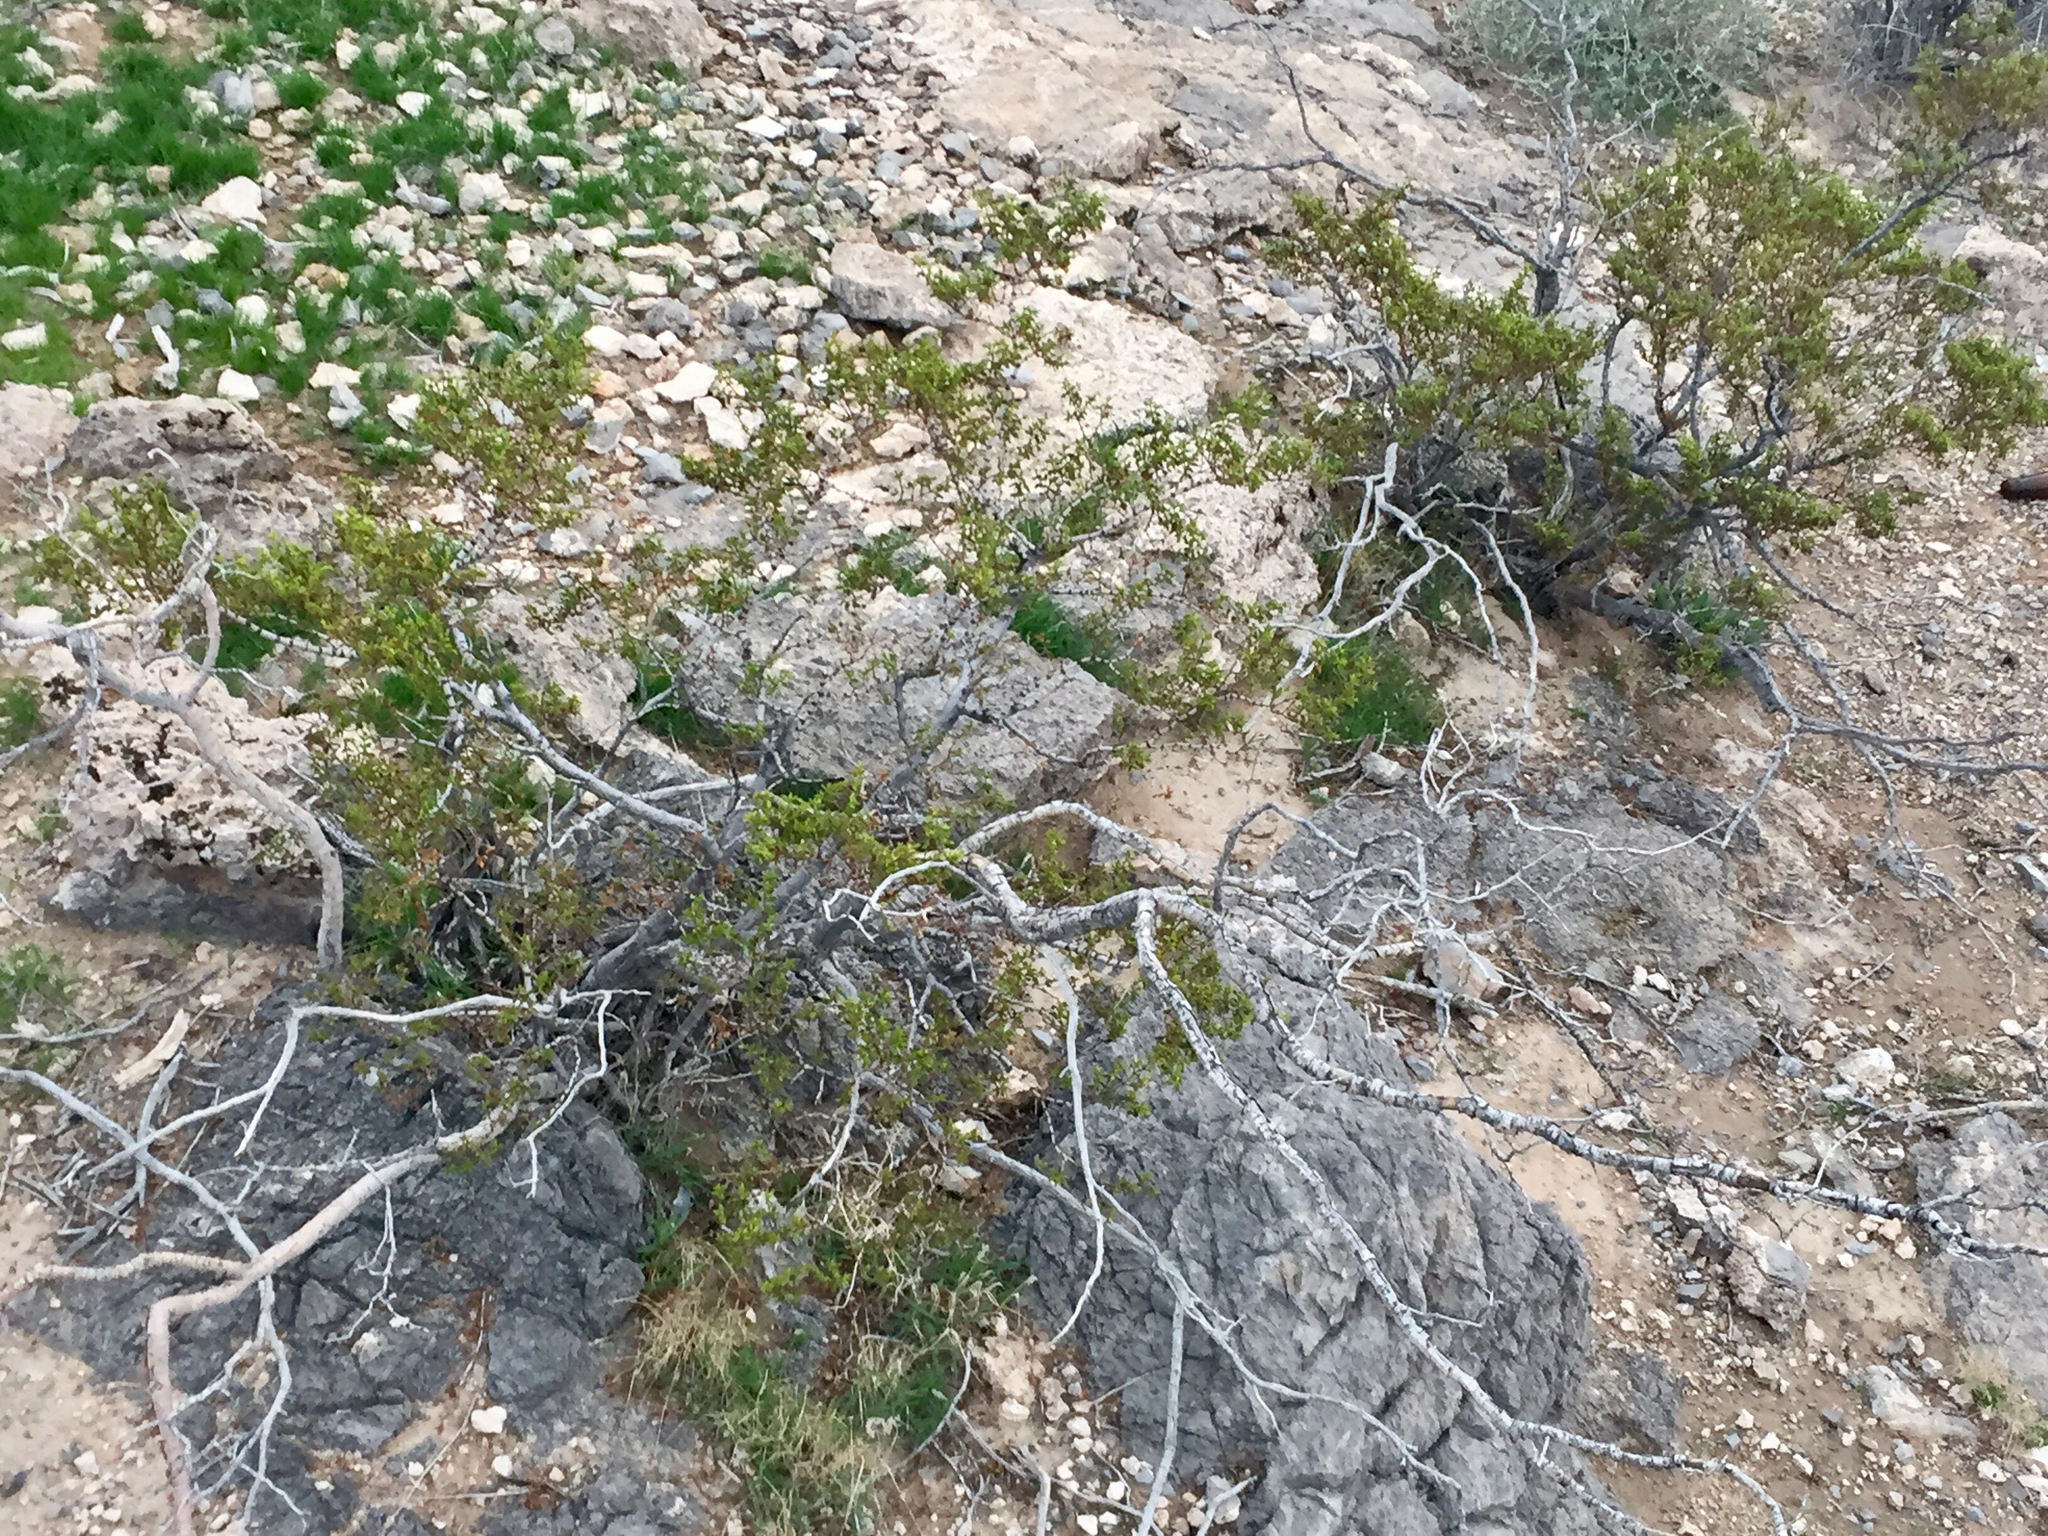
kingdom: Plantae
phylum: Tracheophyta
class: Magnoliopsida
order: Zygophyllales
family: Zygophyllaceae
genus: Larrea
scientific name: Larrea tridentata
